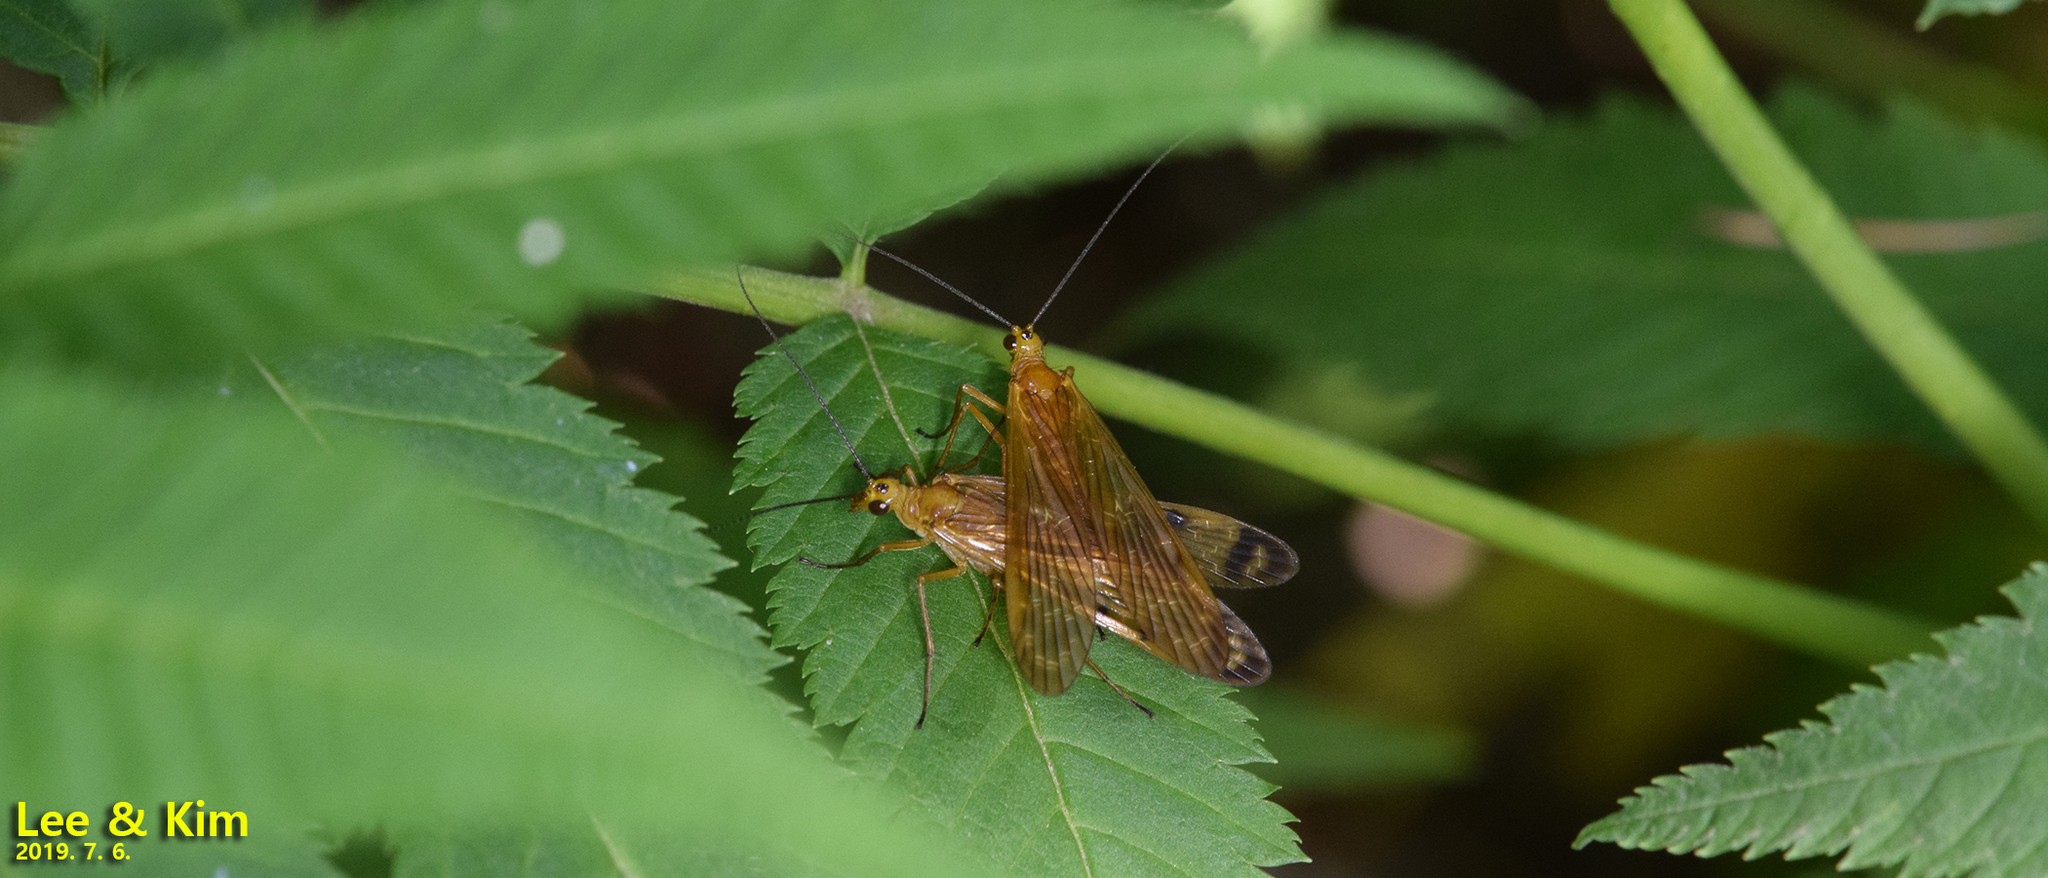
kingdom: Animalia
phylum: Arthropoda
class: Insecta
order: Mecoptera
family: Panorpodidae
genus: Panorpodes
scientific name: Panorpodes komaensis
